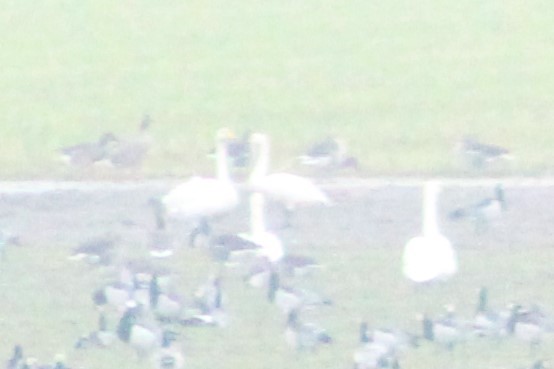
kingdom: Animalia
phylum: Chordata
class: Aves
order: Anseriformes
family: Anatidae
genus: Cygnus
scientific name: Cygnus cygnus
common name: Whooper swan
